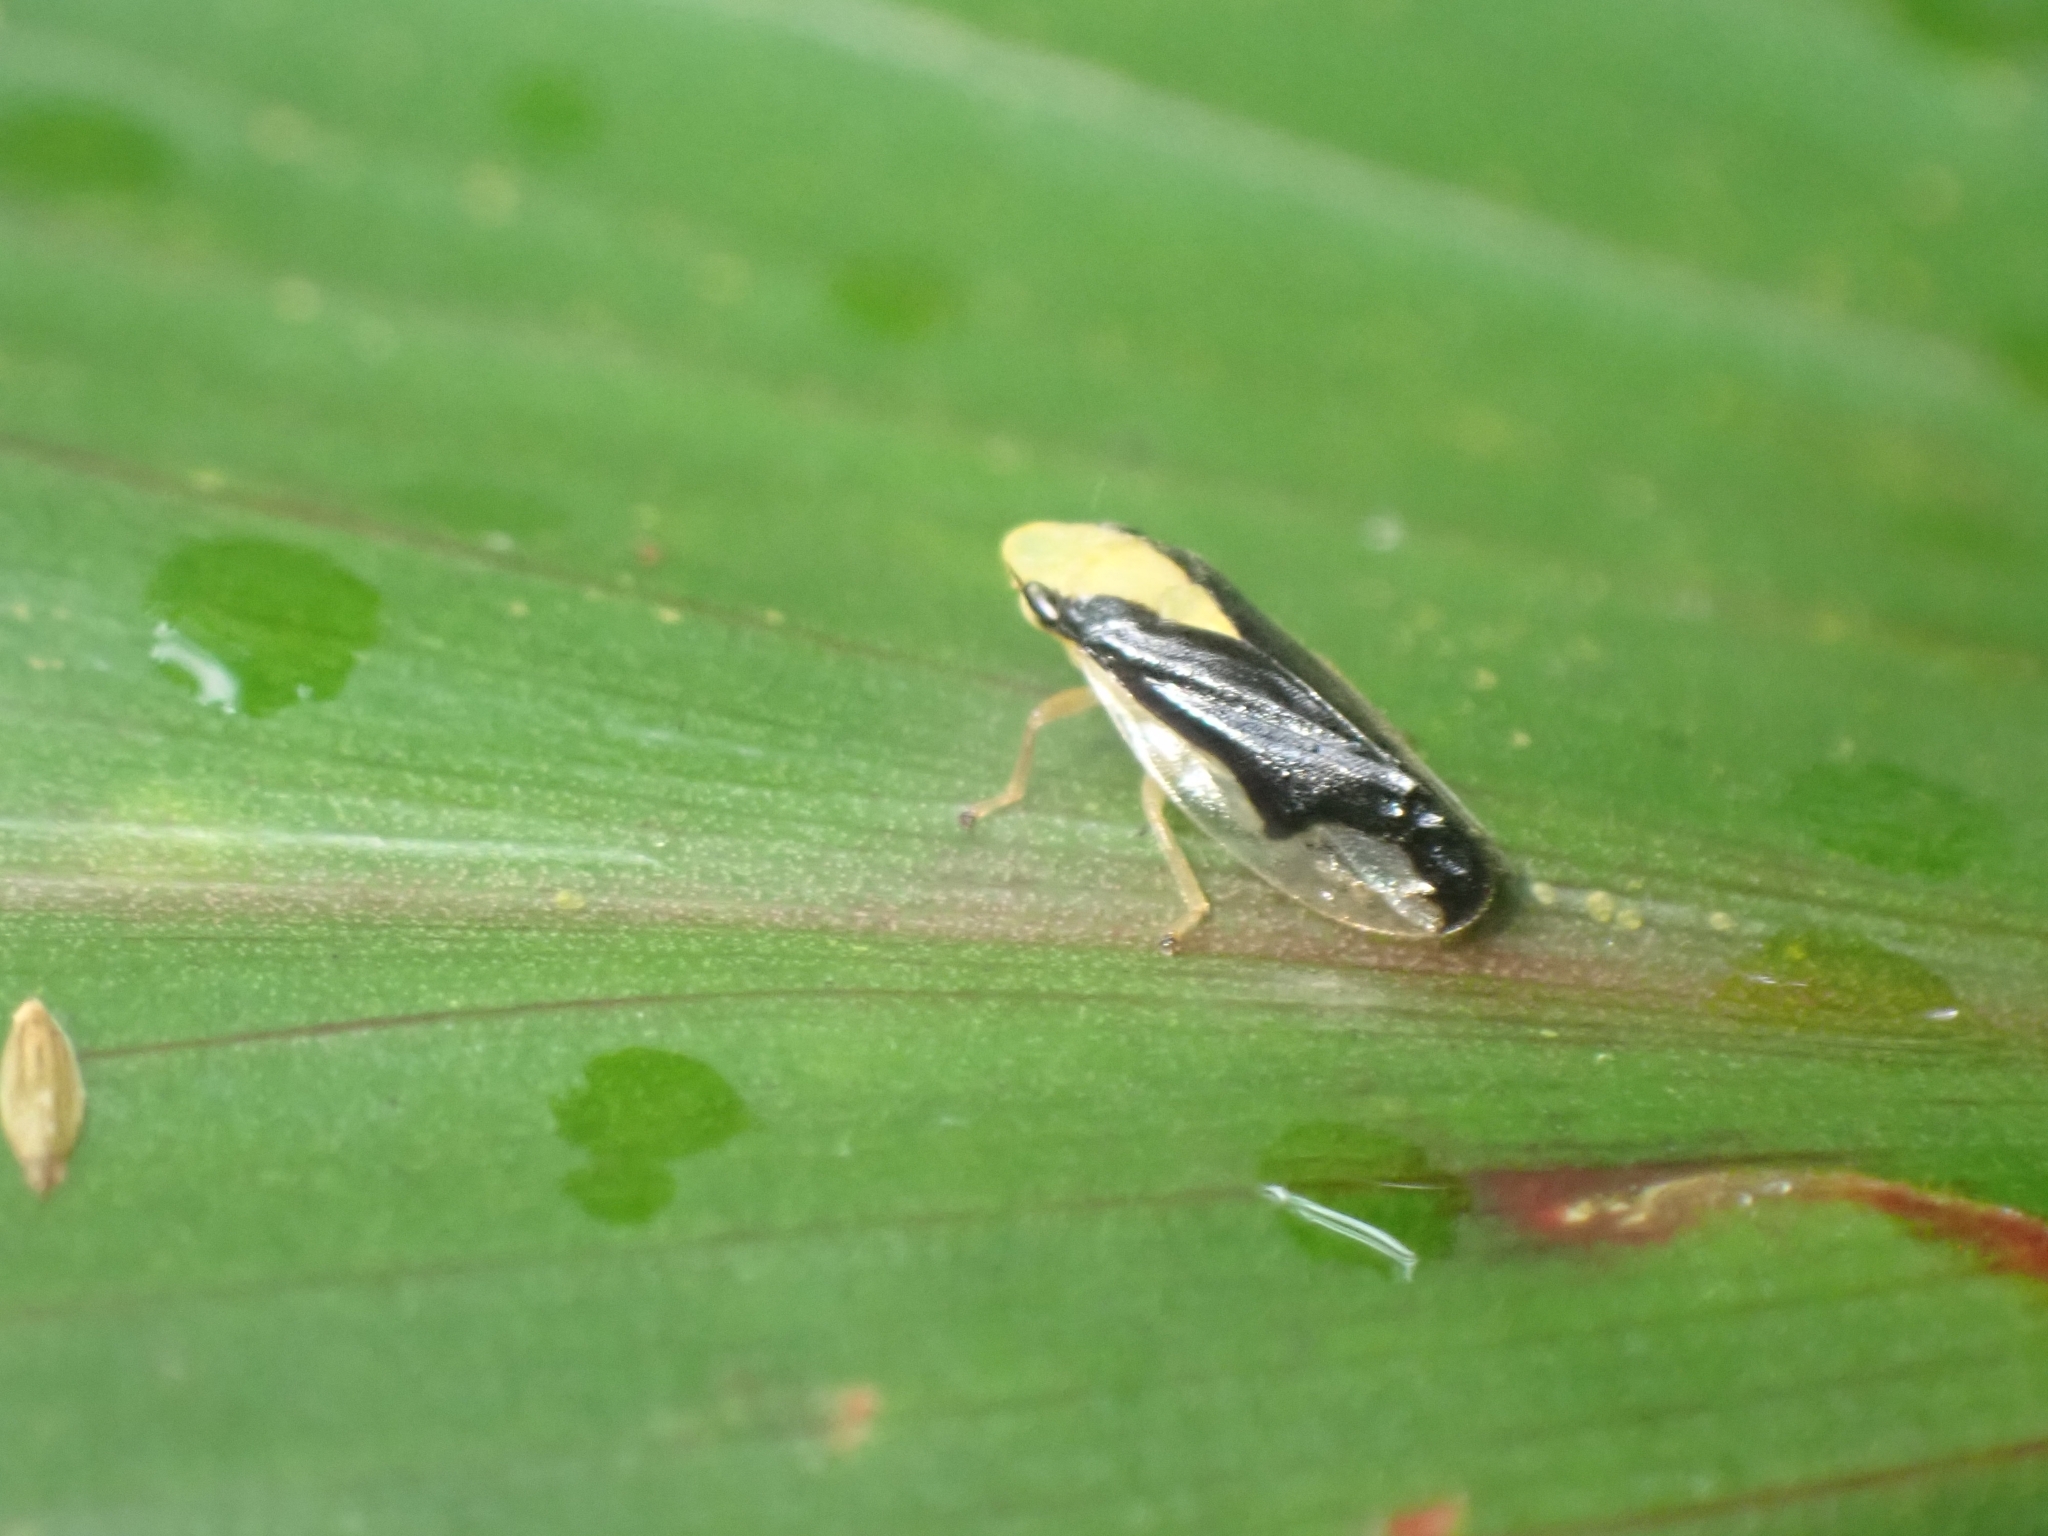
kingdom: Animalia
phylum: Arthropoda
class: Insecta
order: Hemiptera
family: Aphrophoridae
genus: Lallemandana
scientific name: Lallemandana rarotongae
